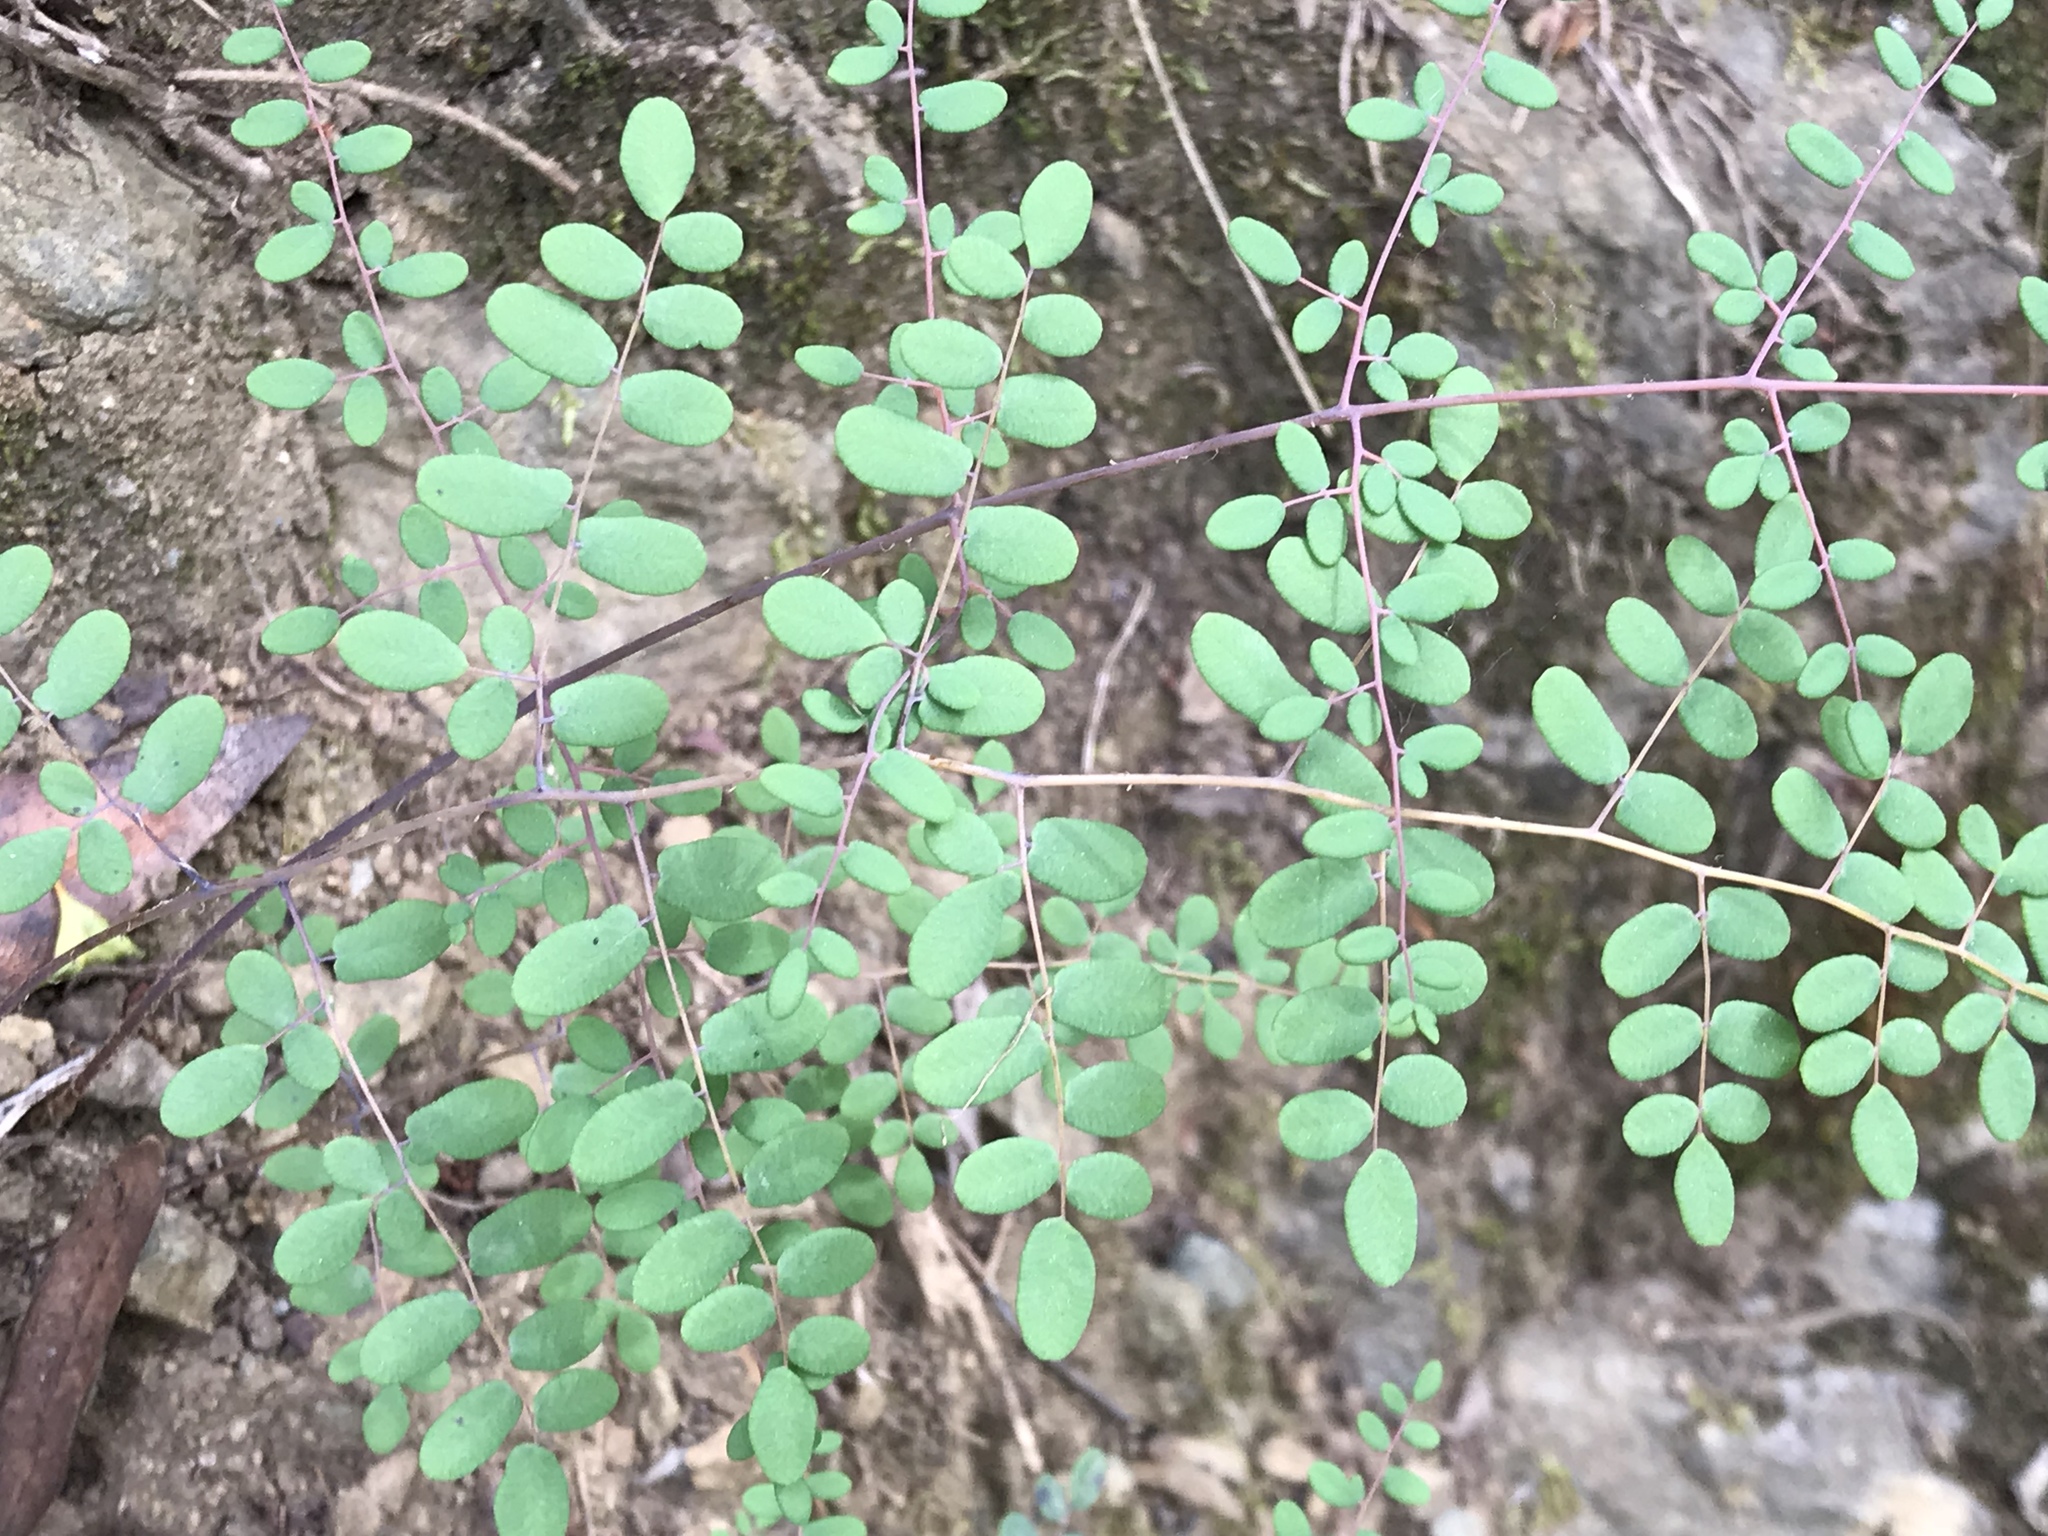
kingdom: Plantae
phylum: Tracheophyta
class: Polypodiopsida
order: Polypodiales
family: Pteridaceae
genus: Pellaea
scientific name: Pellaea andromedifolia
